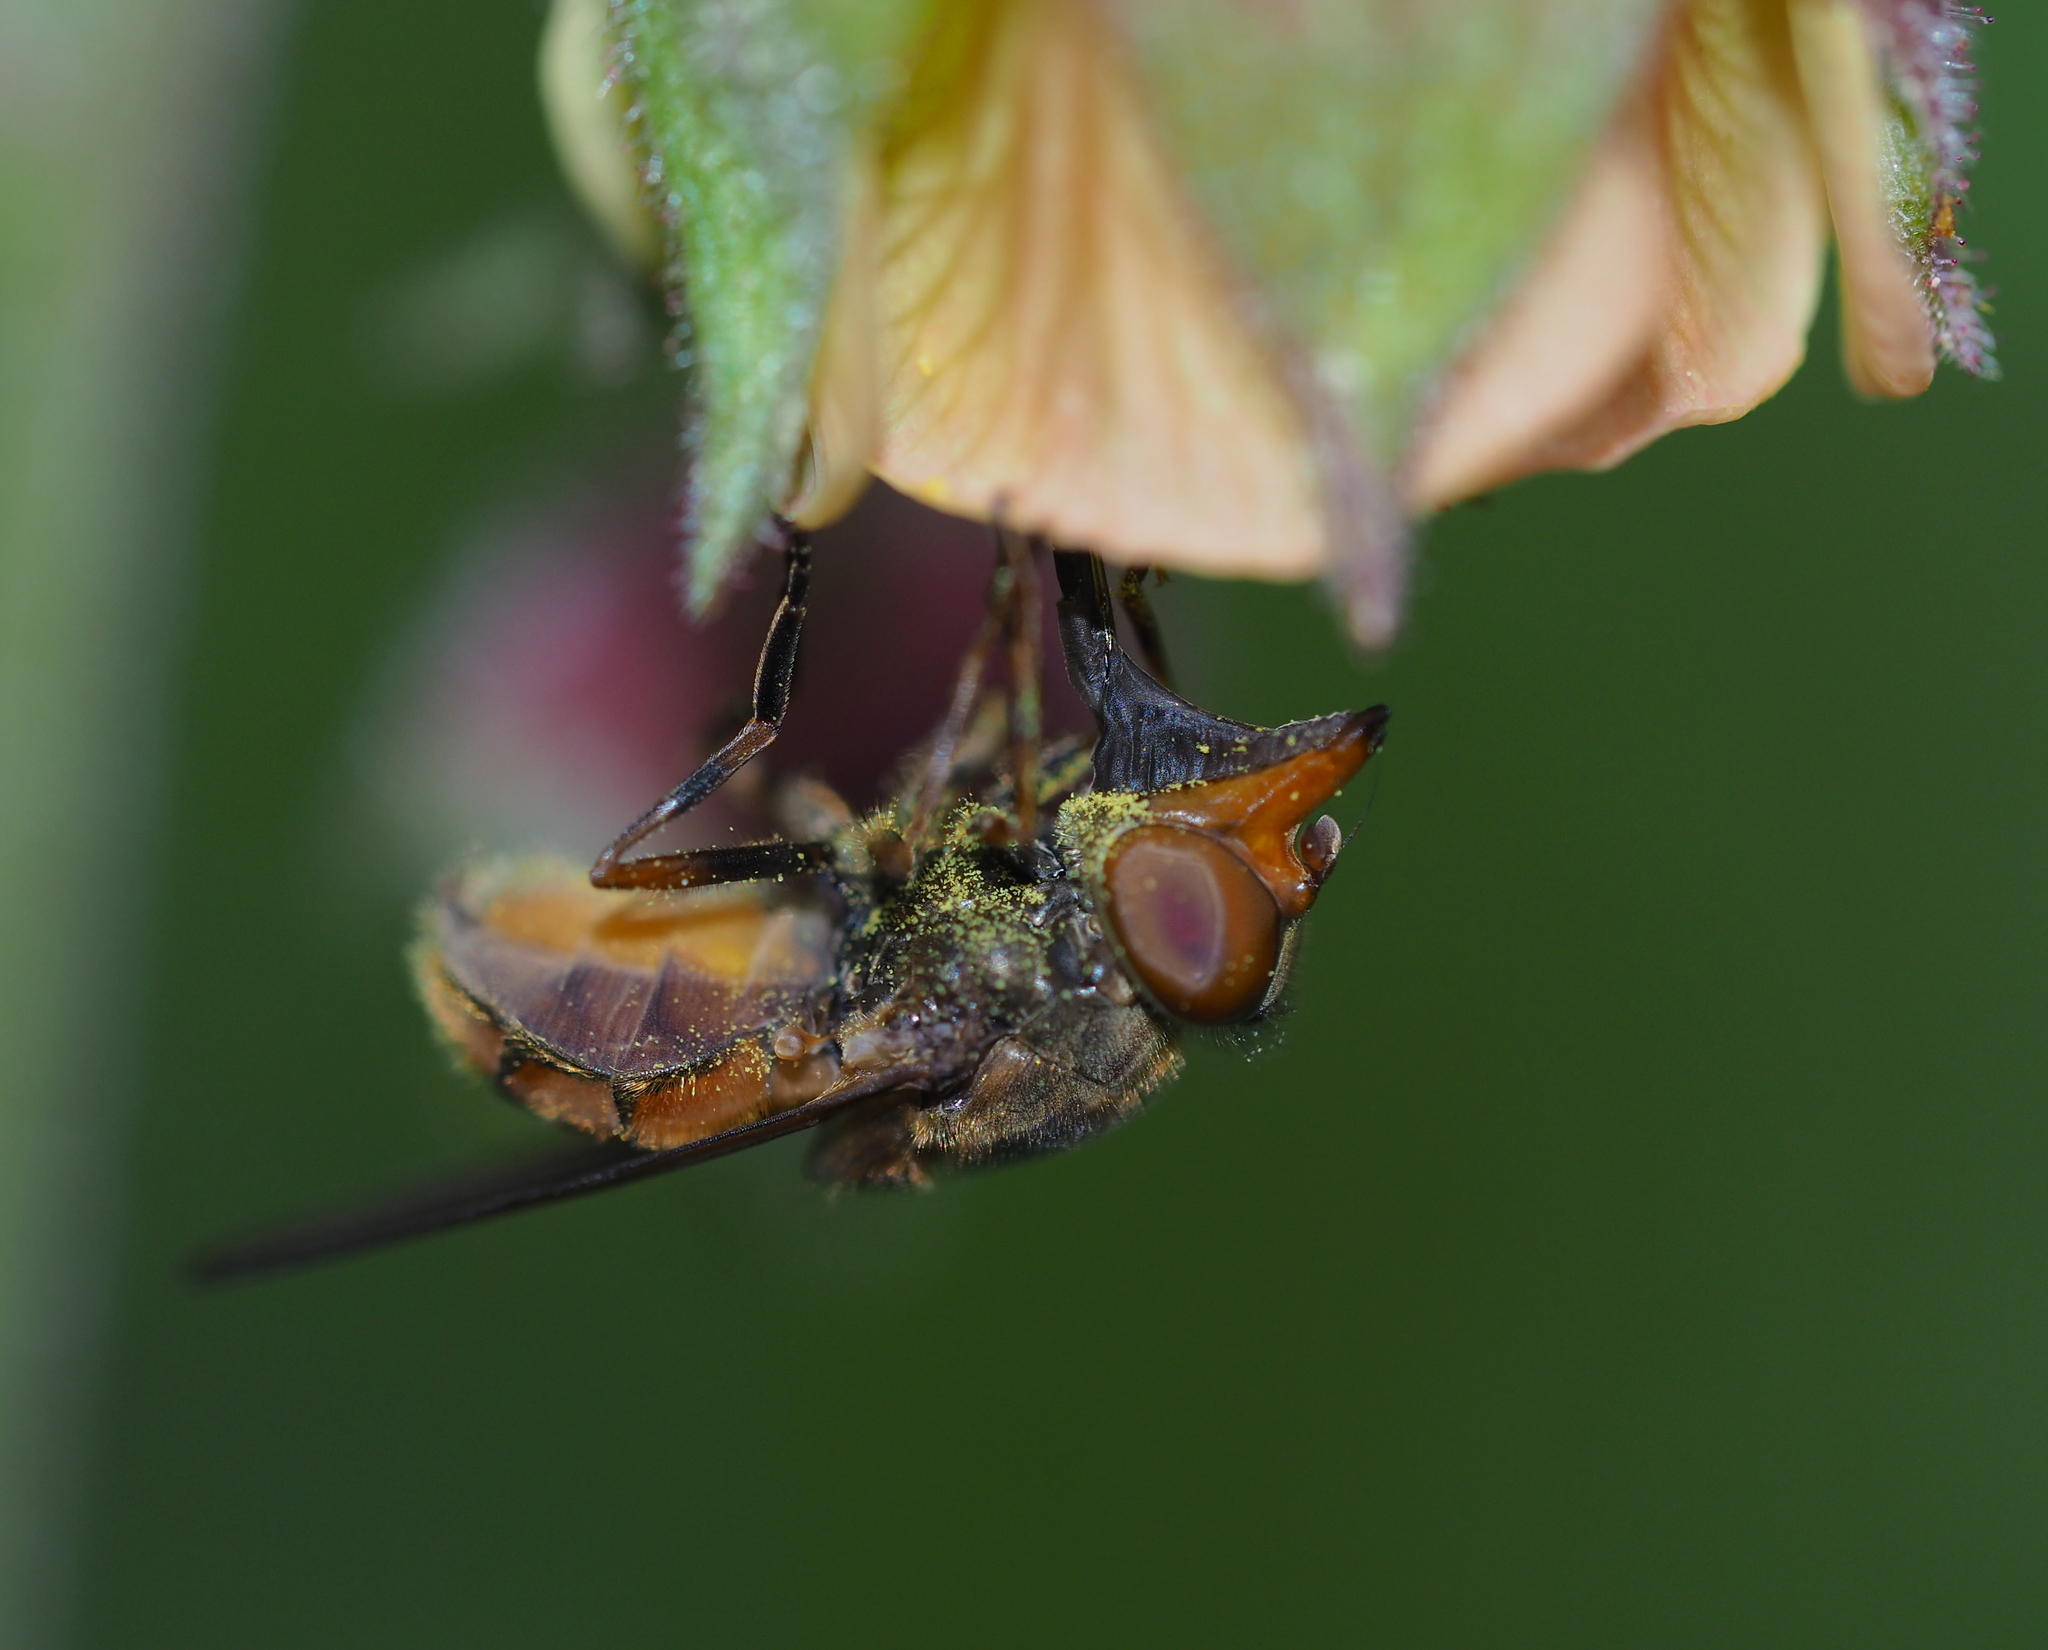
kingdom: Animalia
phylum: Arthropoda
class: Insecta
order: Diptera
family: Syrphidae
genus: Rhingia
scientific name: Rhingia campestris
